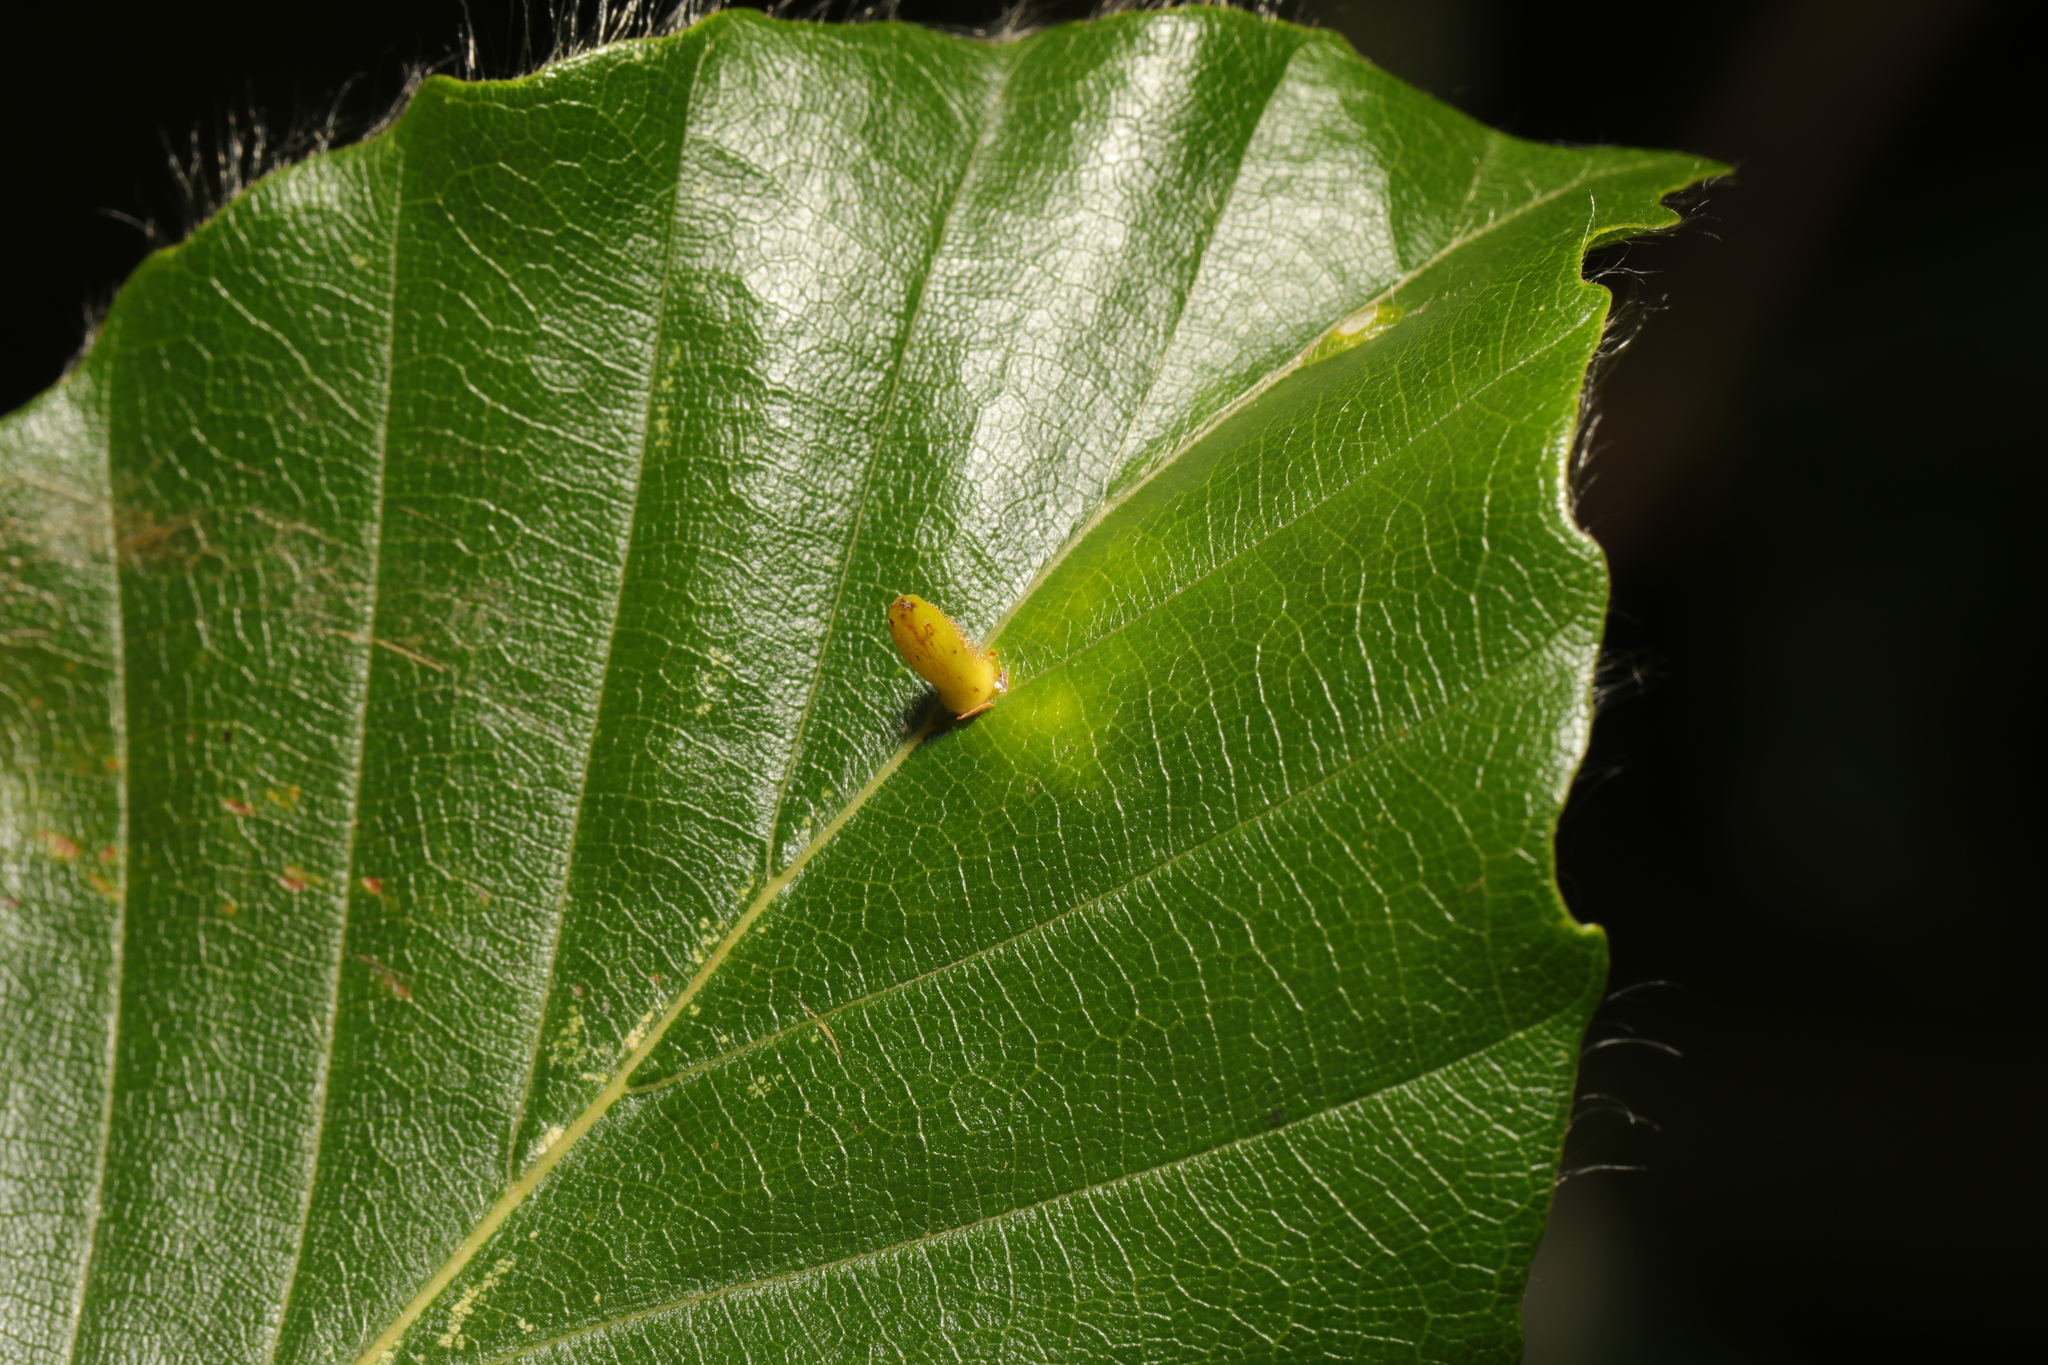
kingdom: Animalia
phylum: Arthropoda
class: Insecta
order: Diptera
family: Cecidomyiidae
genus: Hartigiola
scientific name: Hartigiola annulipes
